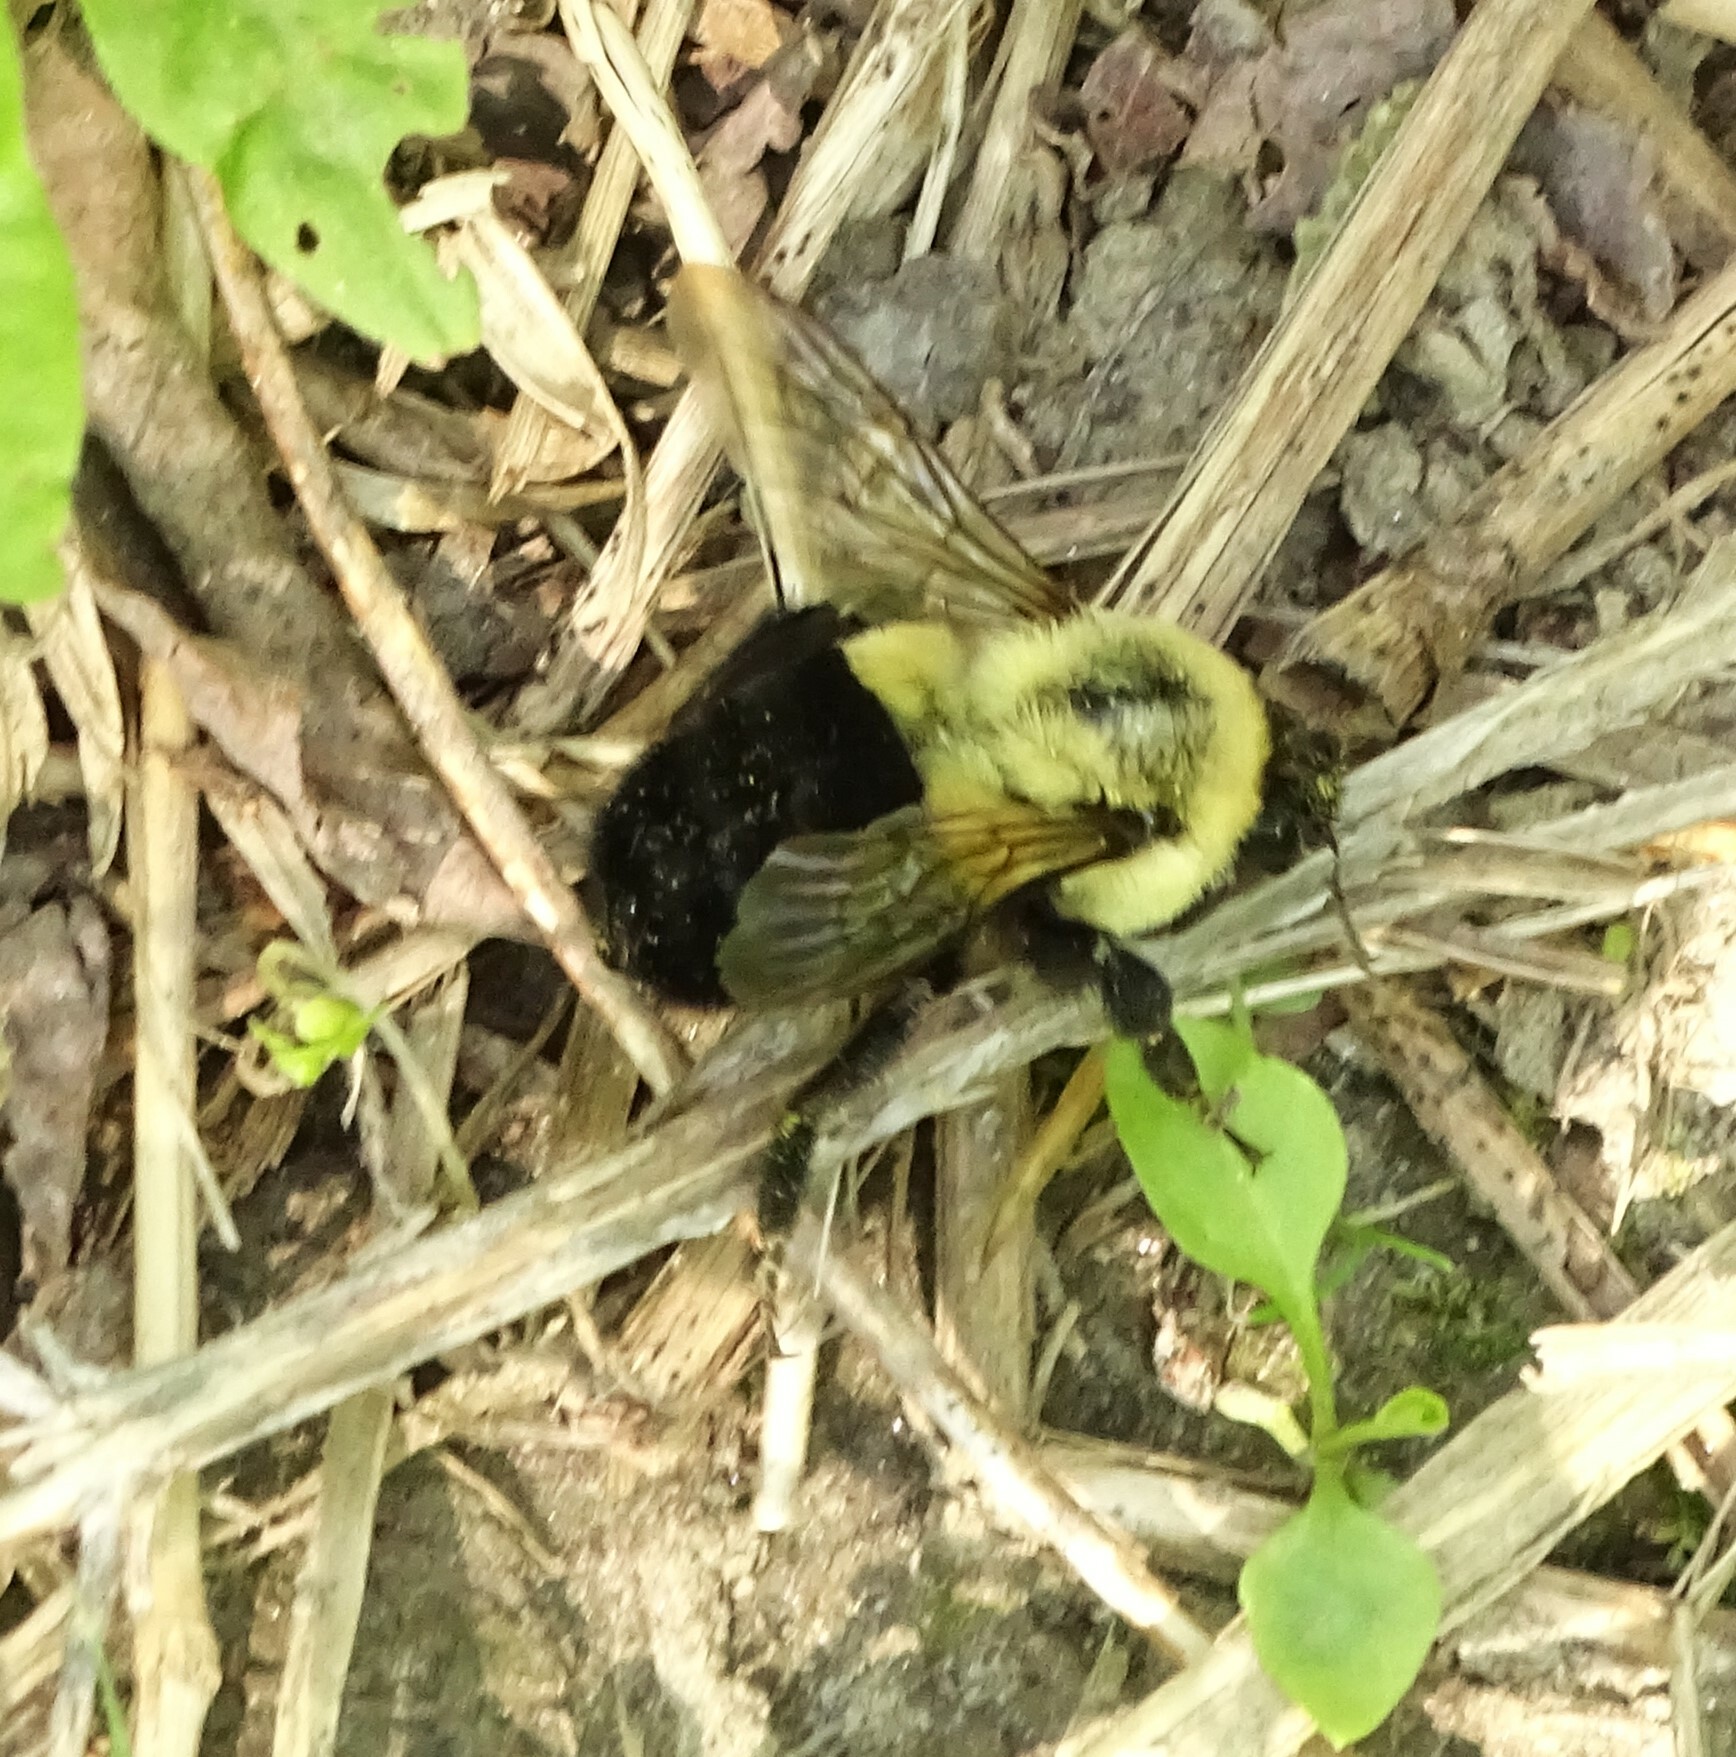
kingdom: Animalia
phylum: Arthropoda
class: Insecta
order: Hymenoptera
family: Apidae
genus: Bombus
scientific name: Bombus impatiens
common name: Common eastern bumble bee
